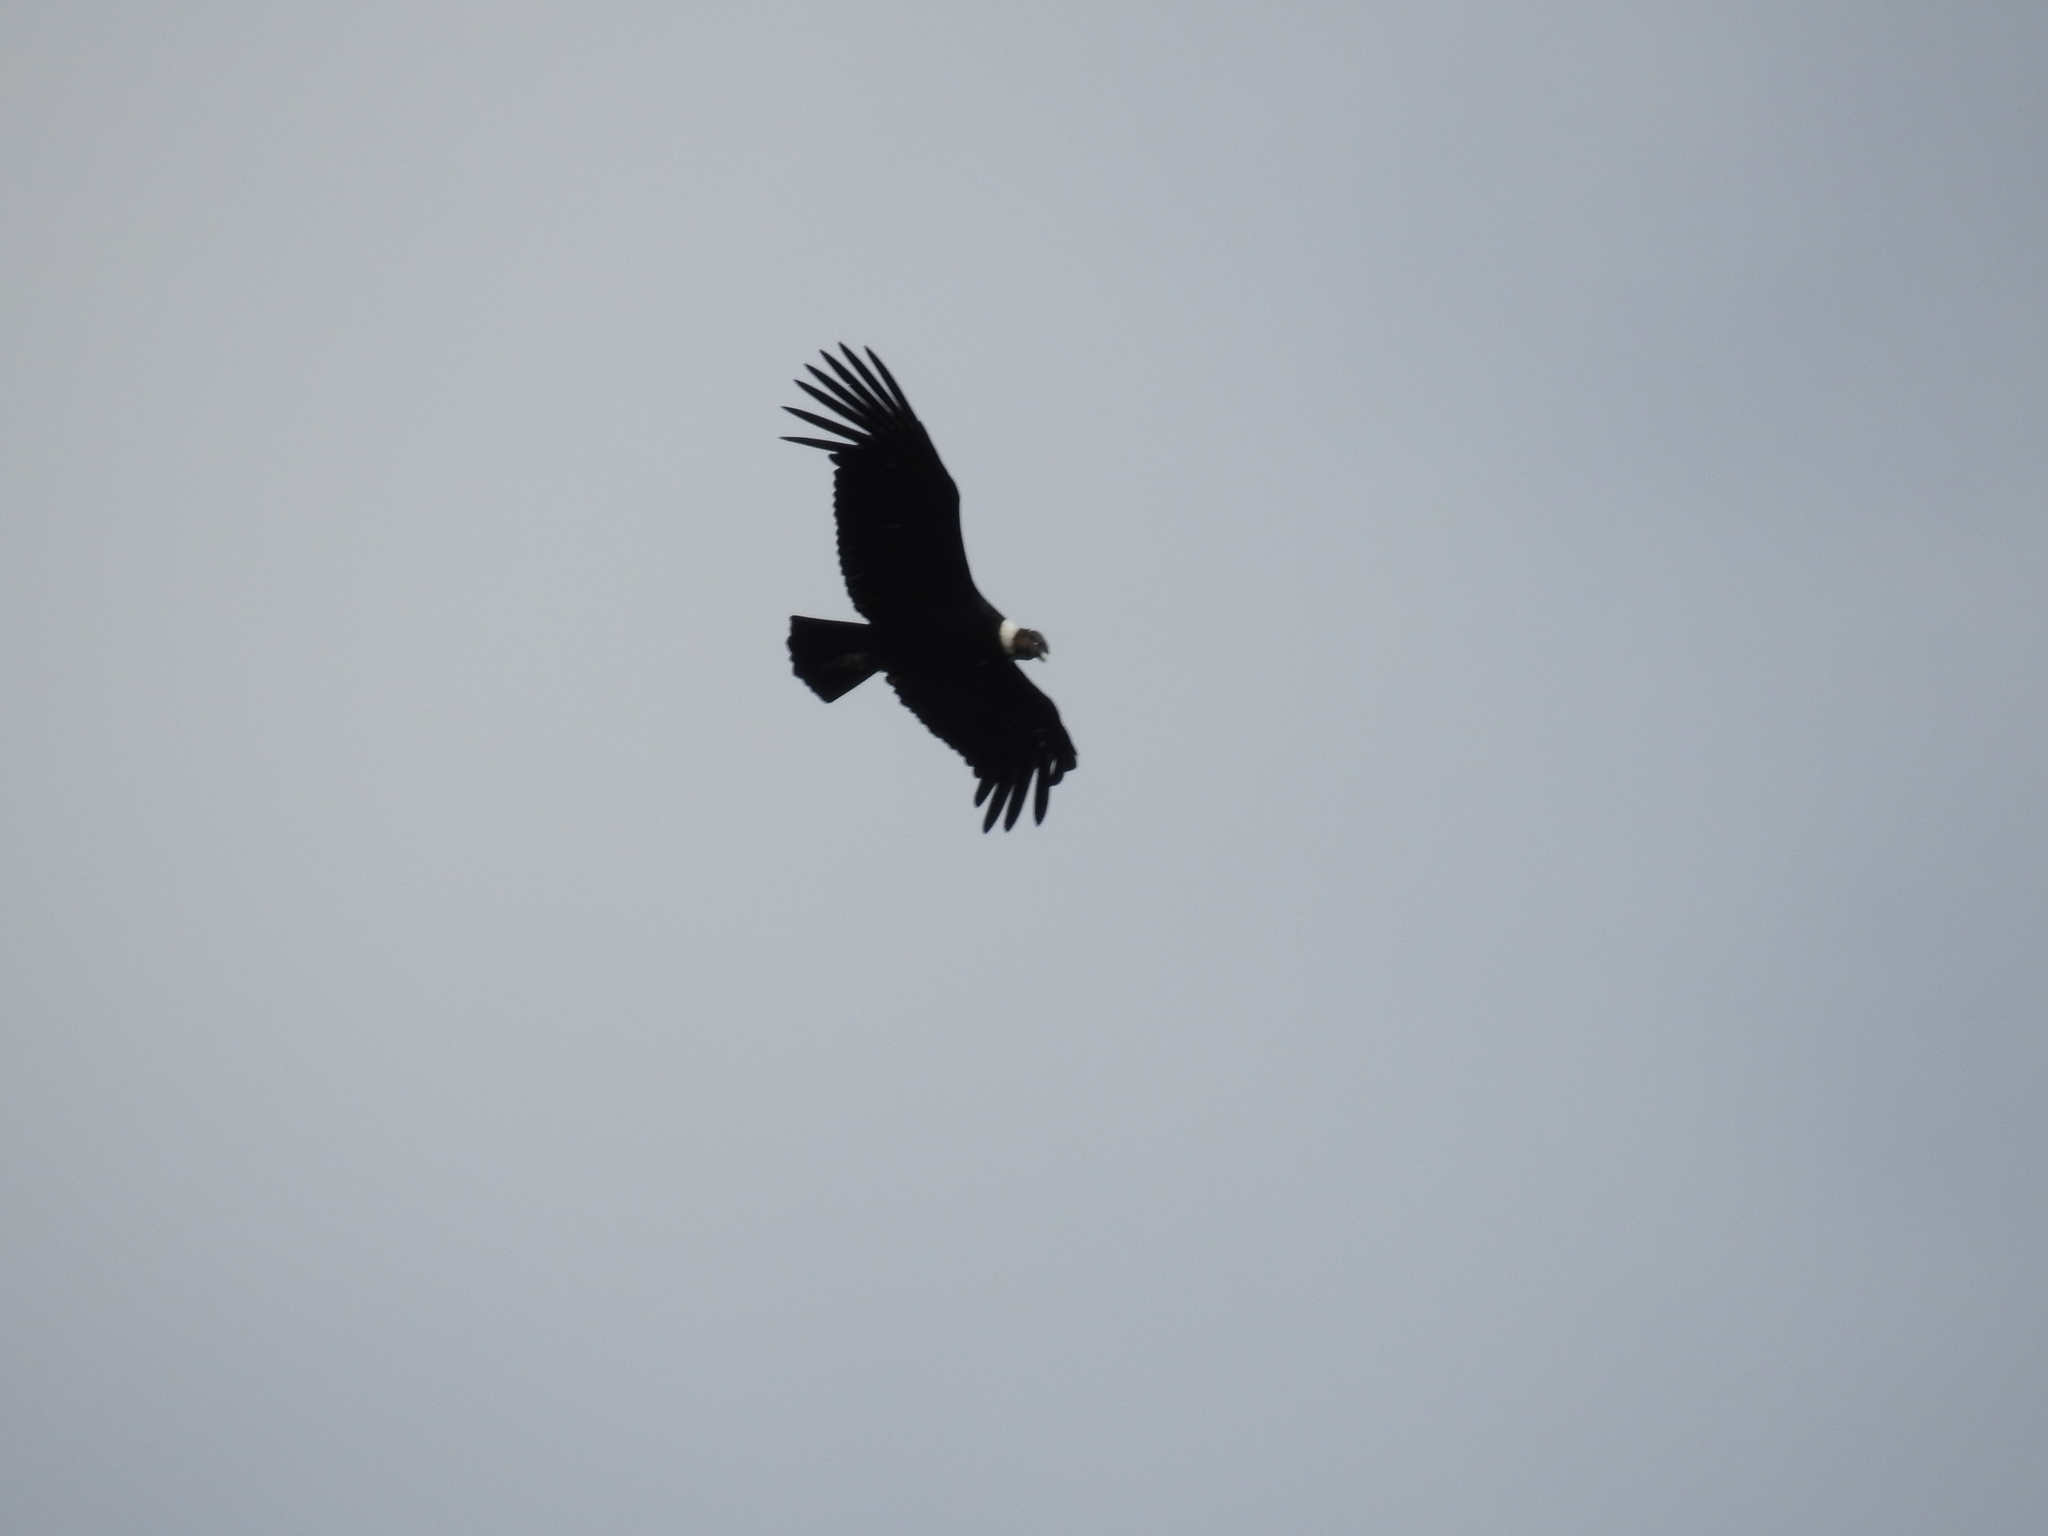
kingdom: Animalia
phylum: Chordata
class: Aves
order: Accipitriformes
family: Cathartidae
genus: Vultur
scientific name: Vultur gryphus
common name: Andean condor
